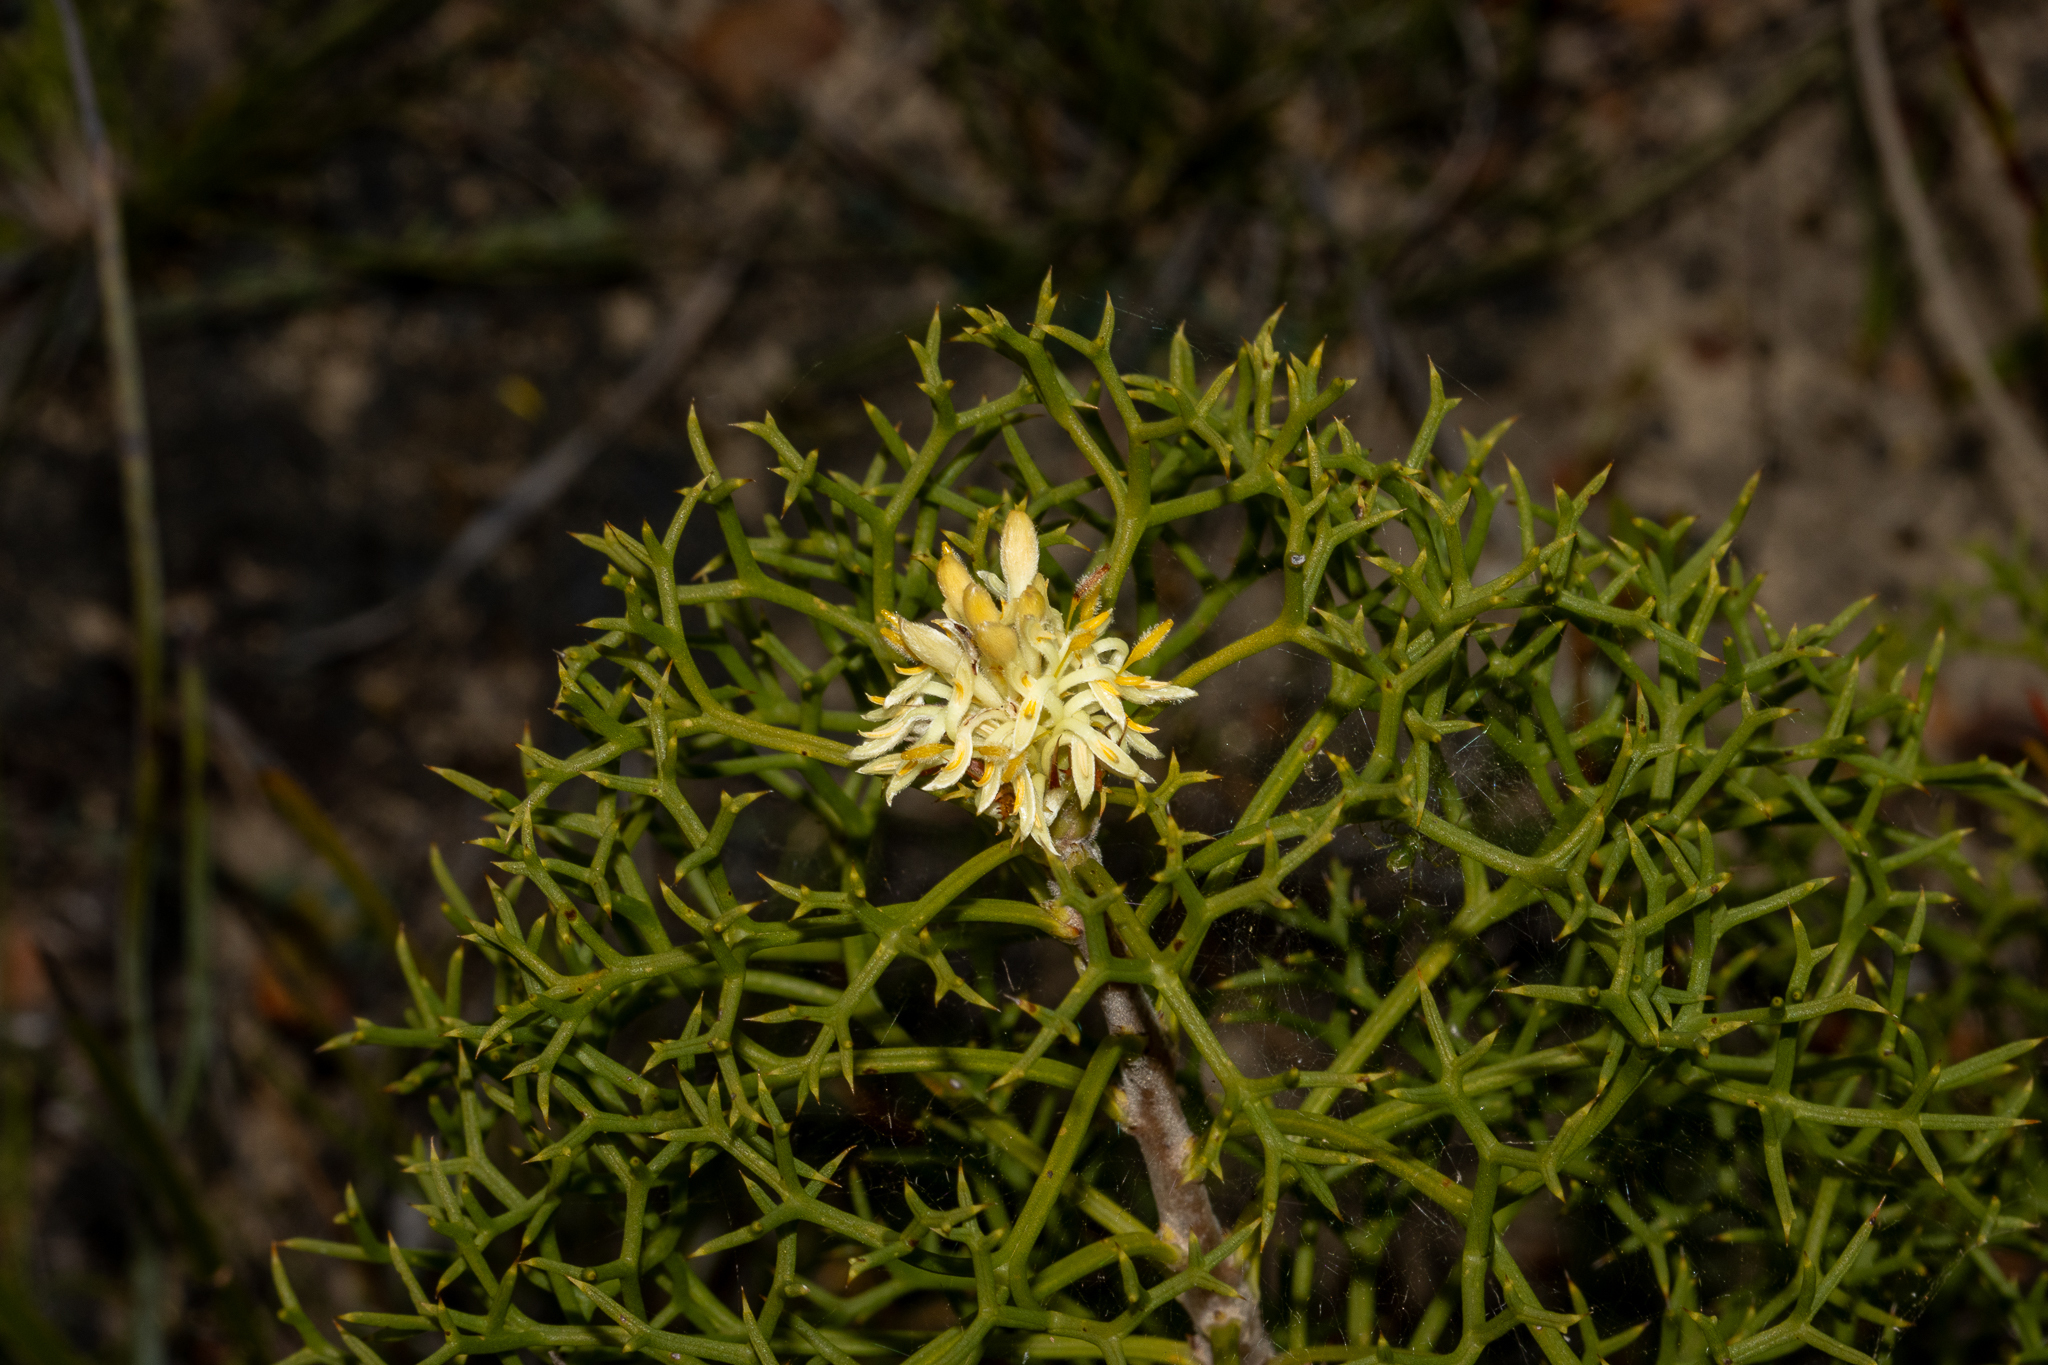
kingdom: Plantae
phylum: Tracheophyta
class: Magnoliopsida
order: Proteales
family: Proteaceae
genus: Petrophile
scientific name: Petrophile multisecta
